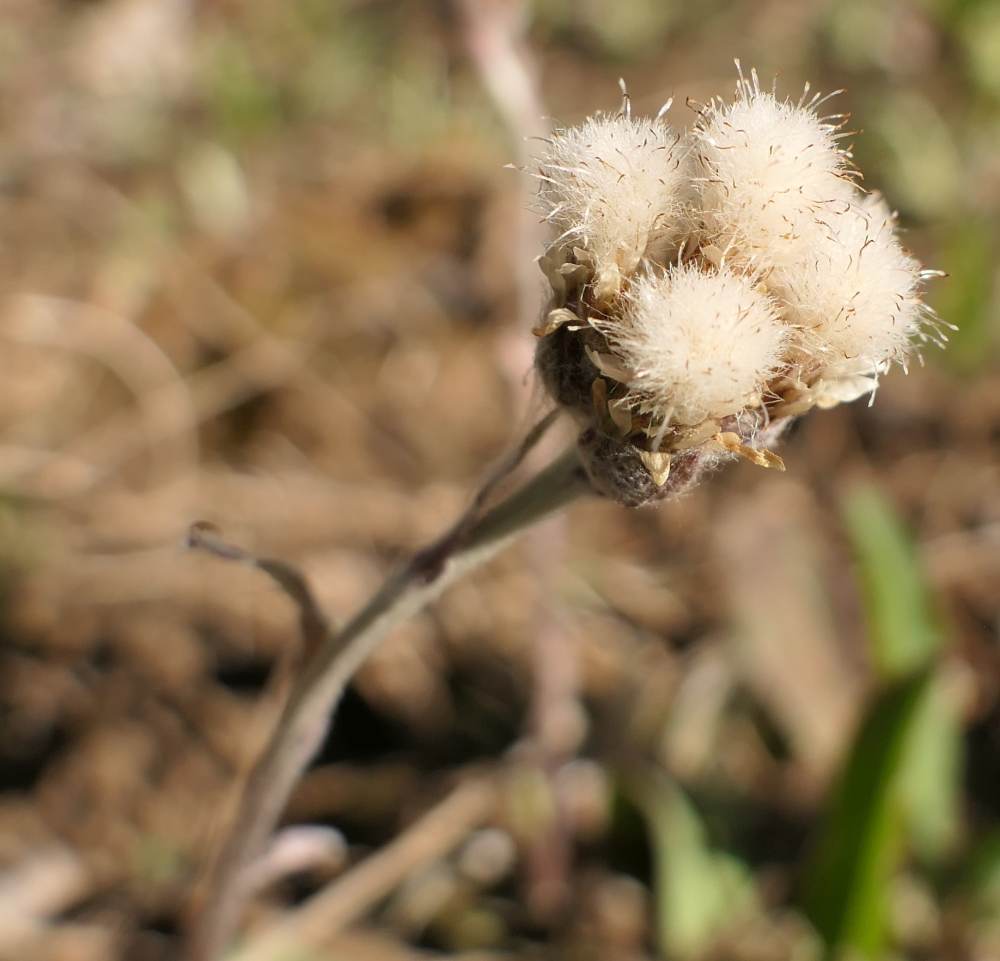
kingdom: Plantae
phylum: Tracheophyta
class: Magnoliopsida
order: Asterales
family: Asteraceae
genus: Antennaria
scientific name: Antennaria neglecta
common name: Field pussytoes
